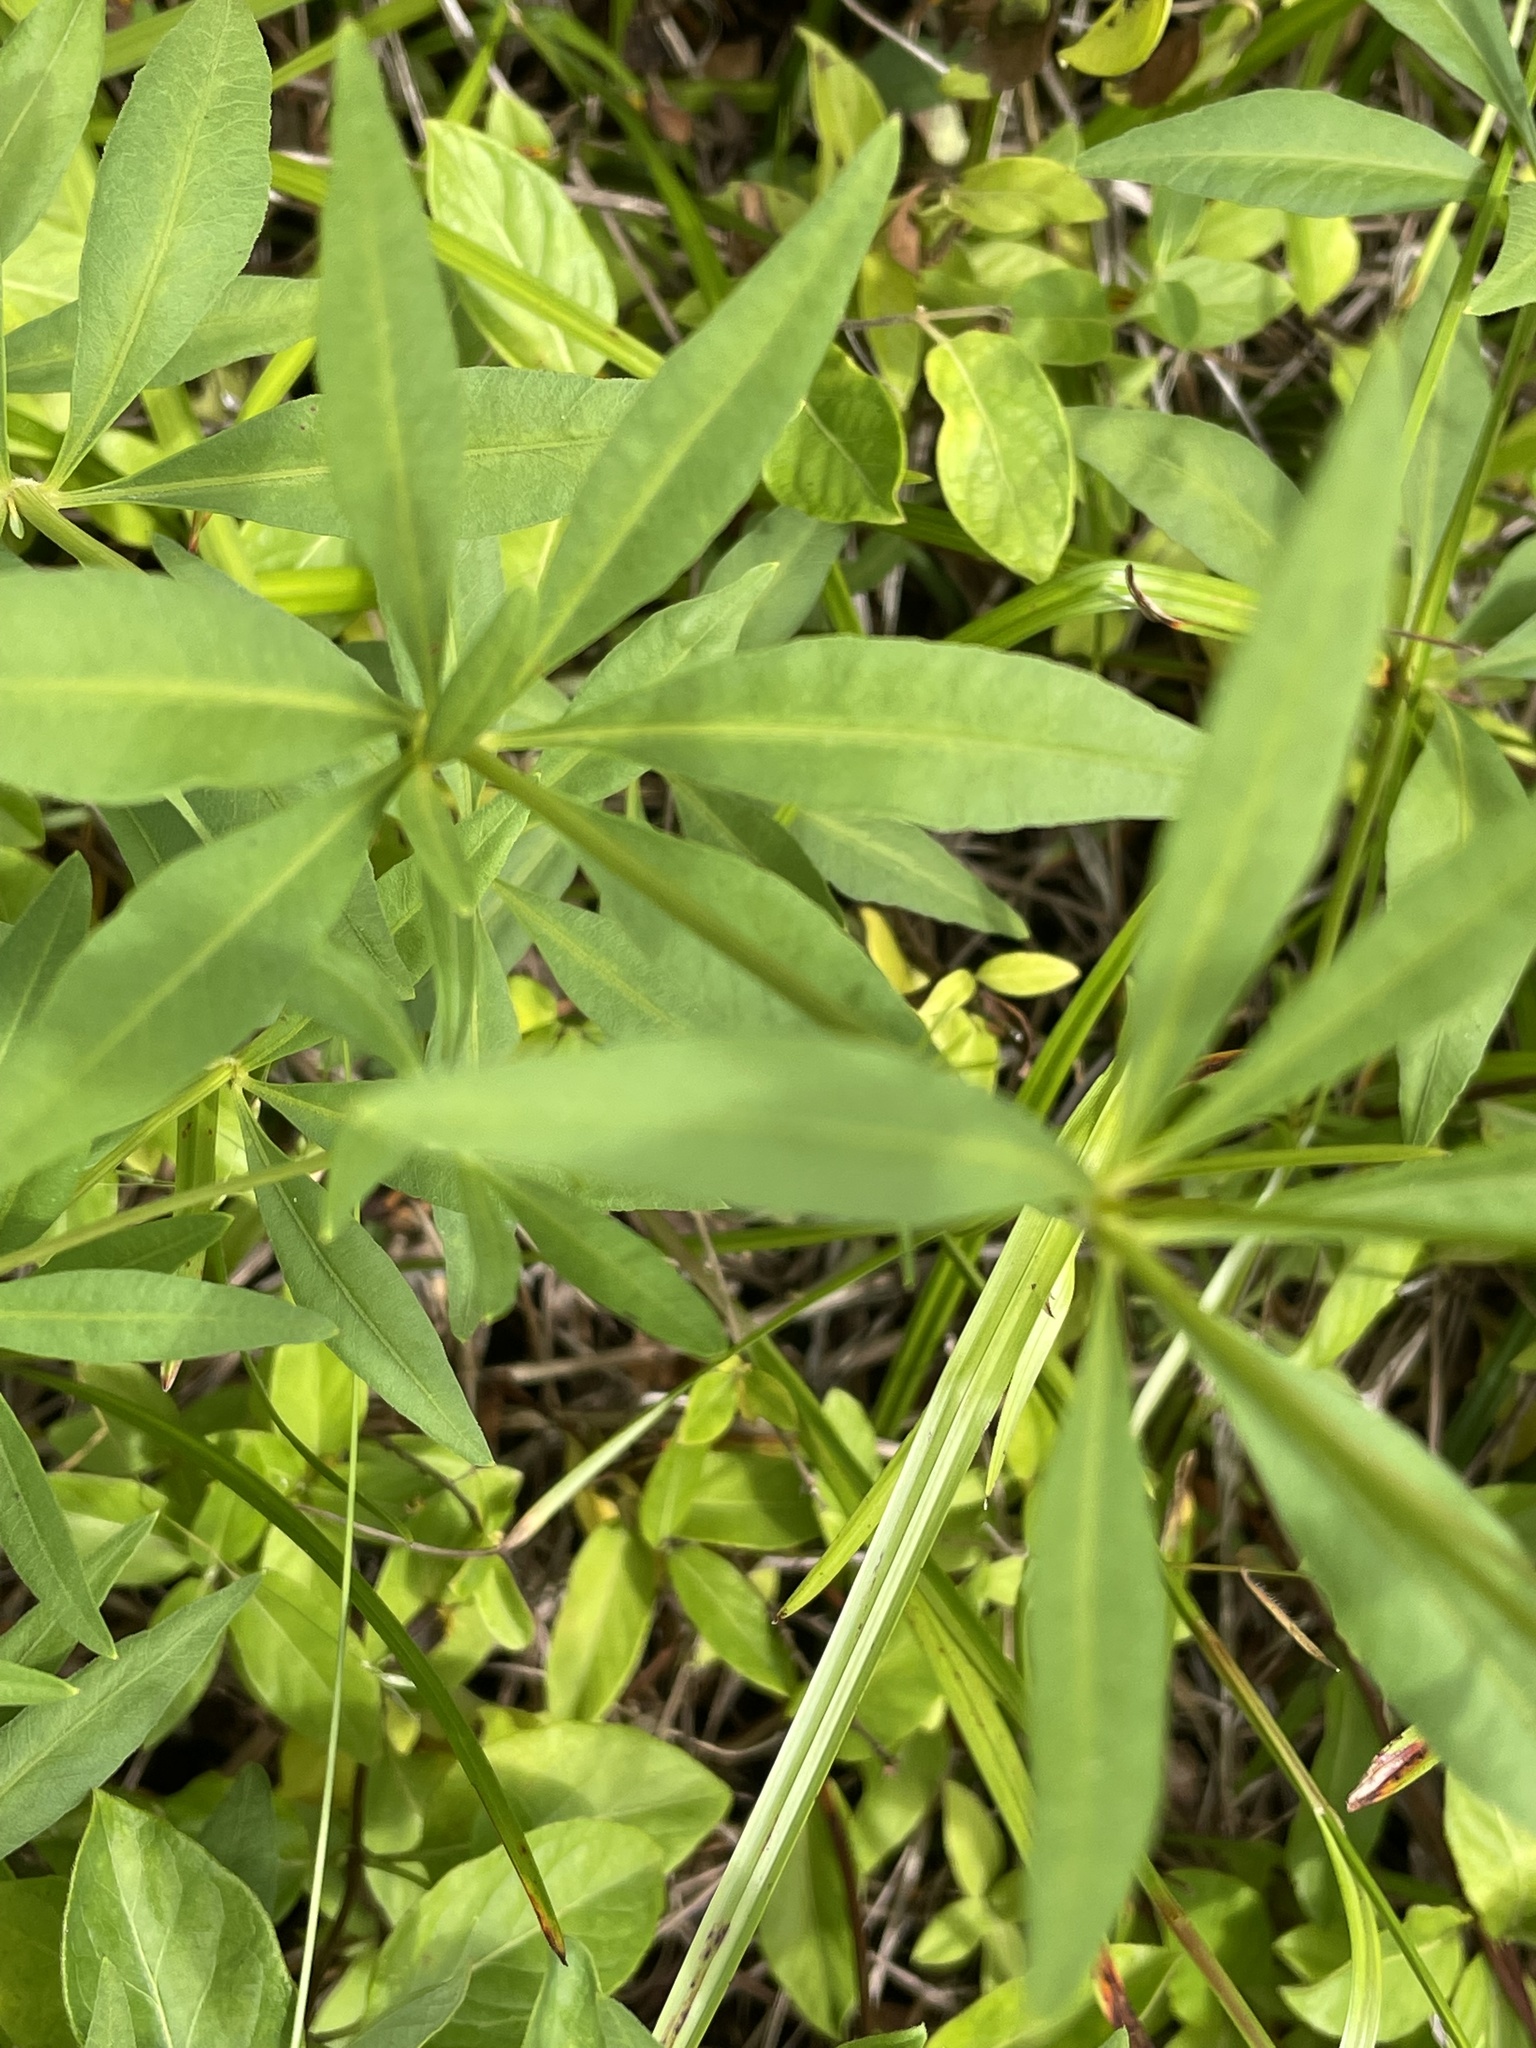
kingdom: Plantae
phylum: Tracheophyta
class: Magnoliopsida
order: Asterales
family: Asteraceae
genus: Coreopsis
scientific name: Coreopsis major
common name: Forest tickseed
